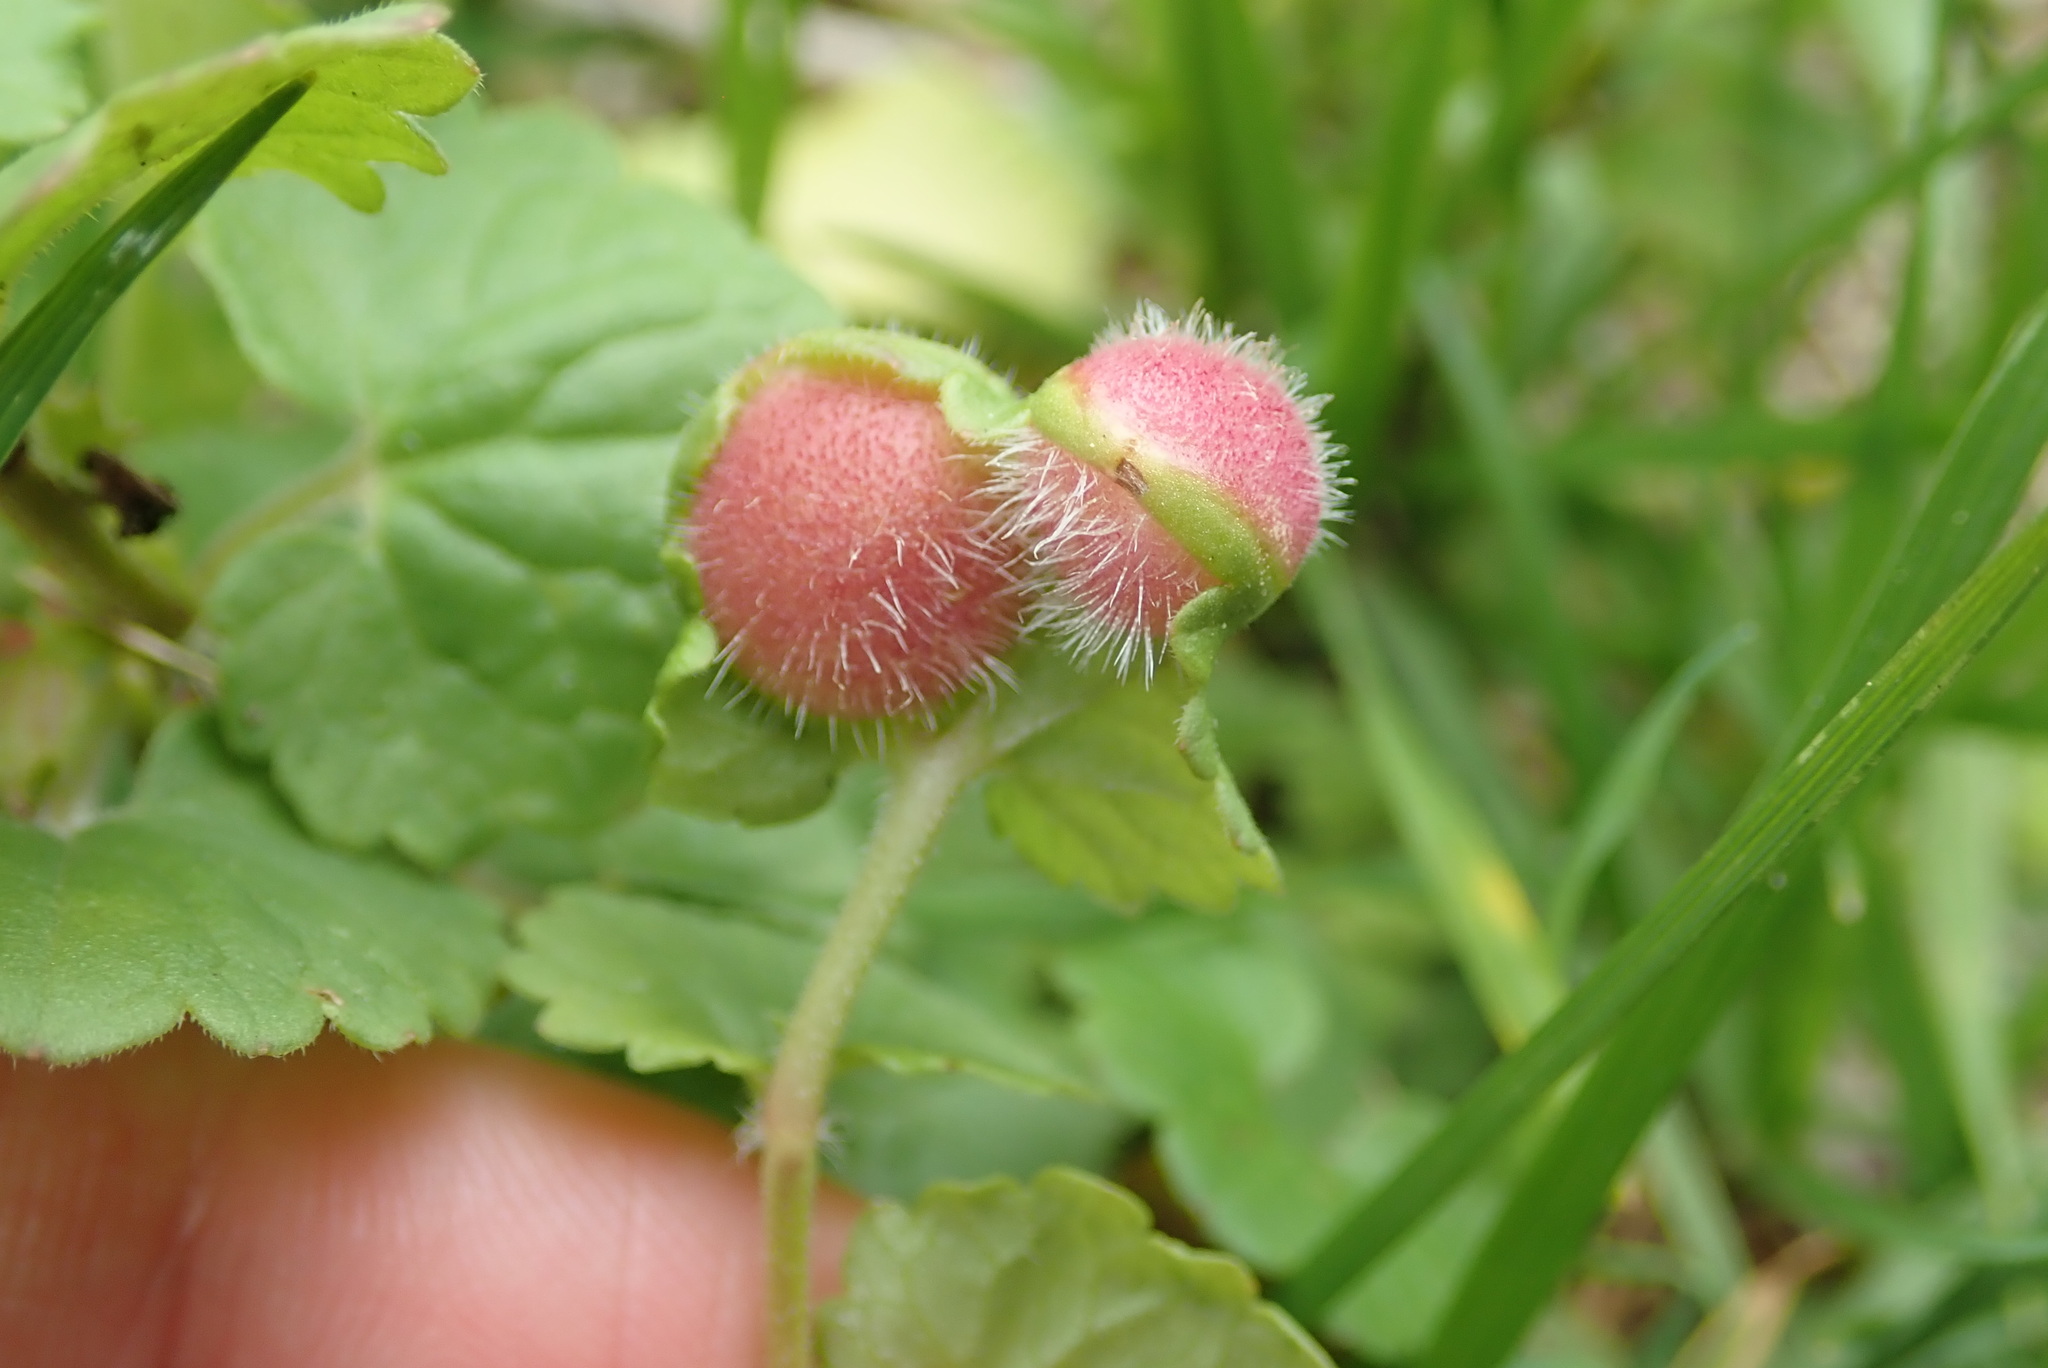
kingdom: Animalia
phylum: Arthropoda
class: Insecta
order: Hymenoptera
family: Cynipidae
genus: Liposthenes
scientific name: Liposthenes glechomae
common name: Gall wasp
